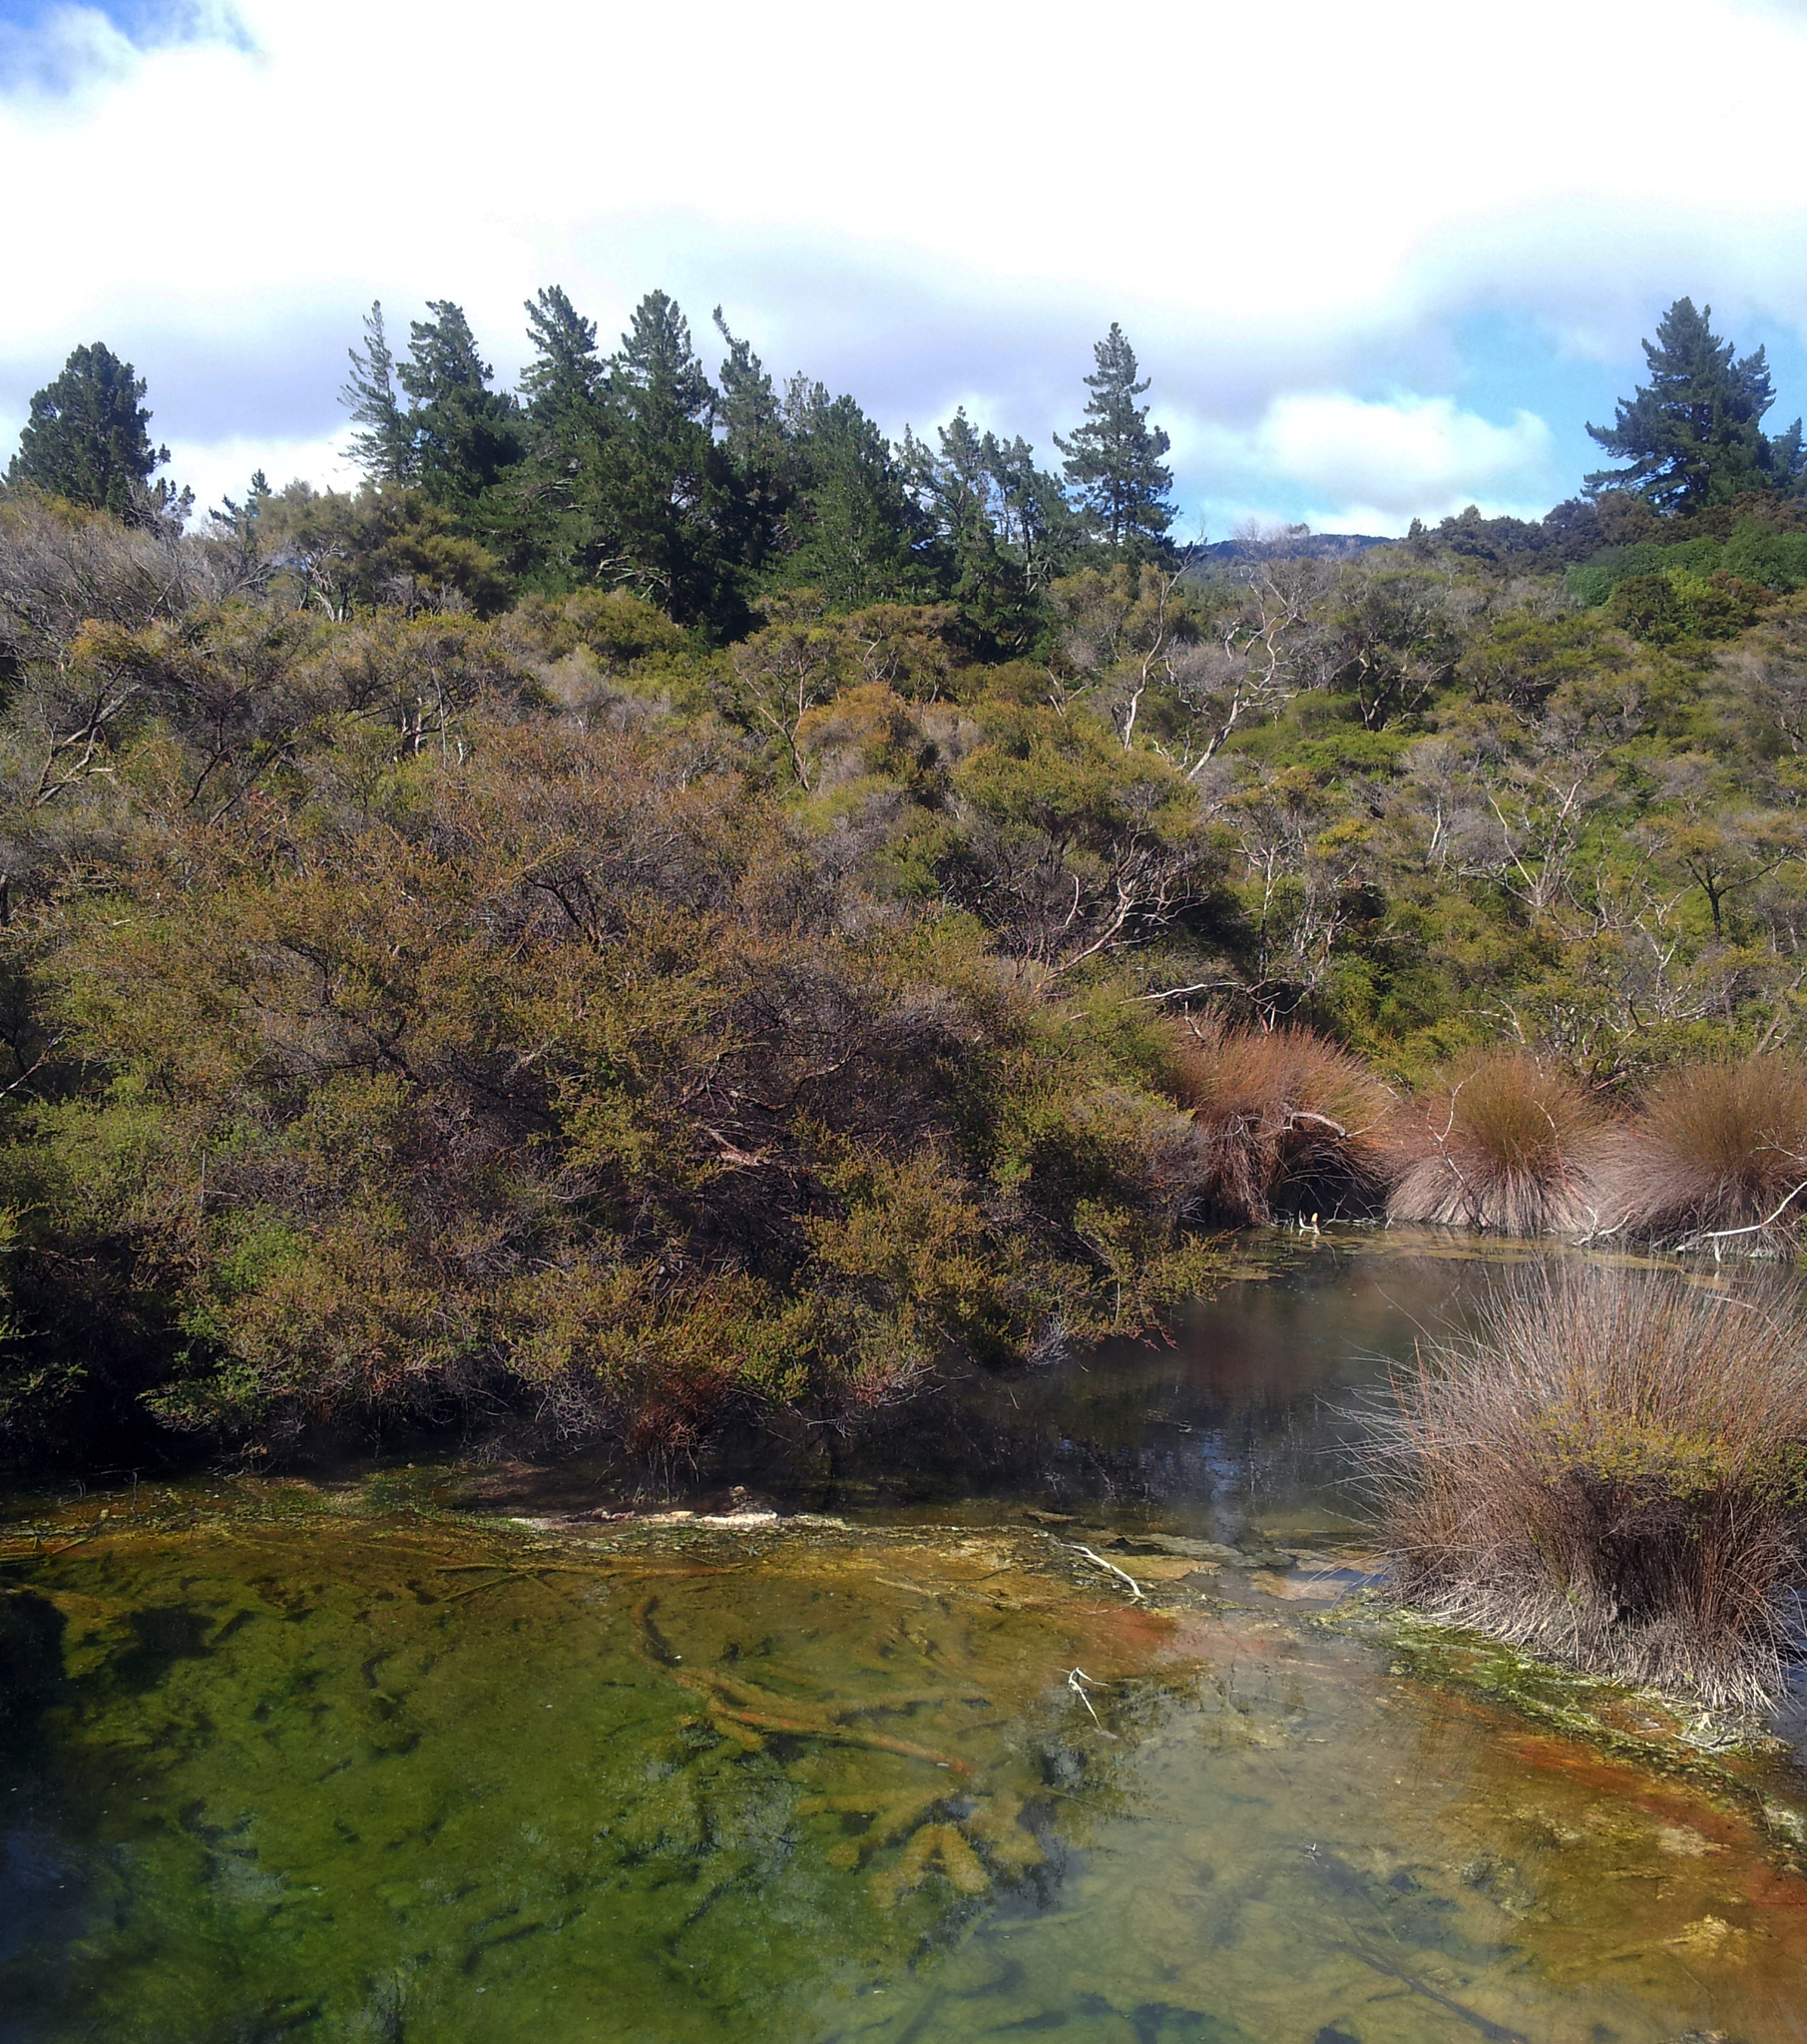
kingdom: Plantae
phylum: Tracheophyta
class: Magnoliopsida
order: Myrtales
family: Myrtaceae
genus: Kunzea
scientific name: Kunzea tenuicaulis
